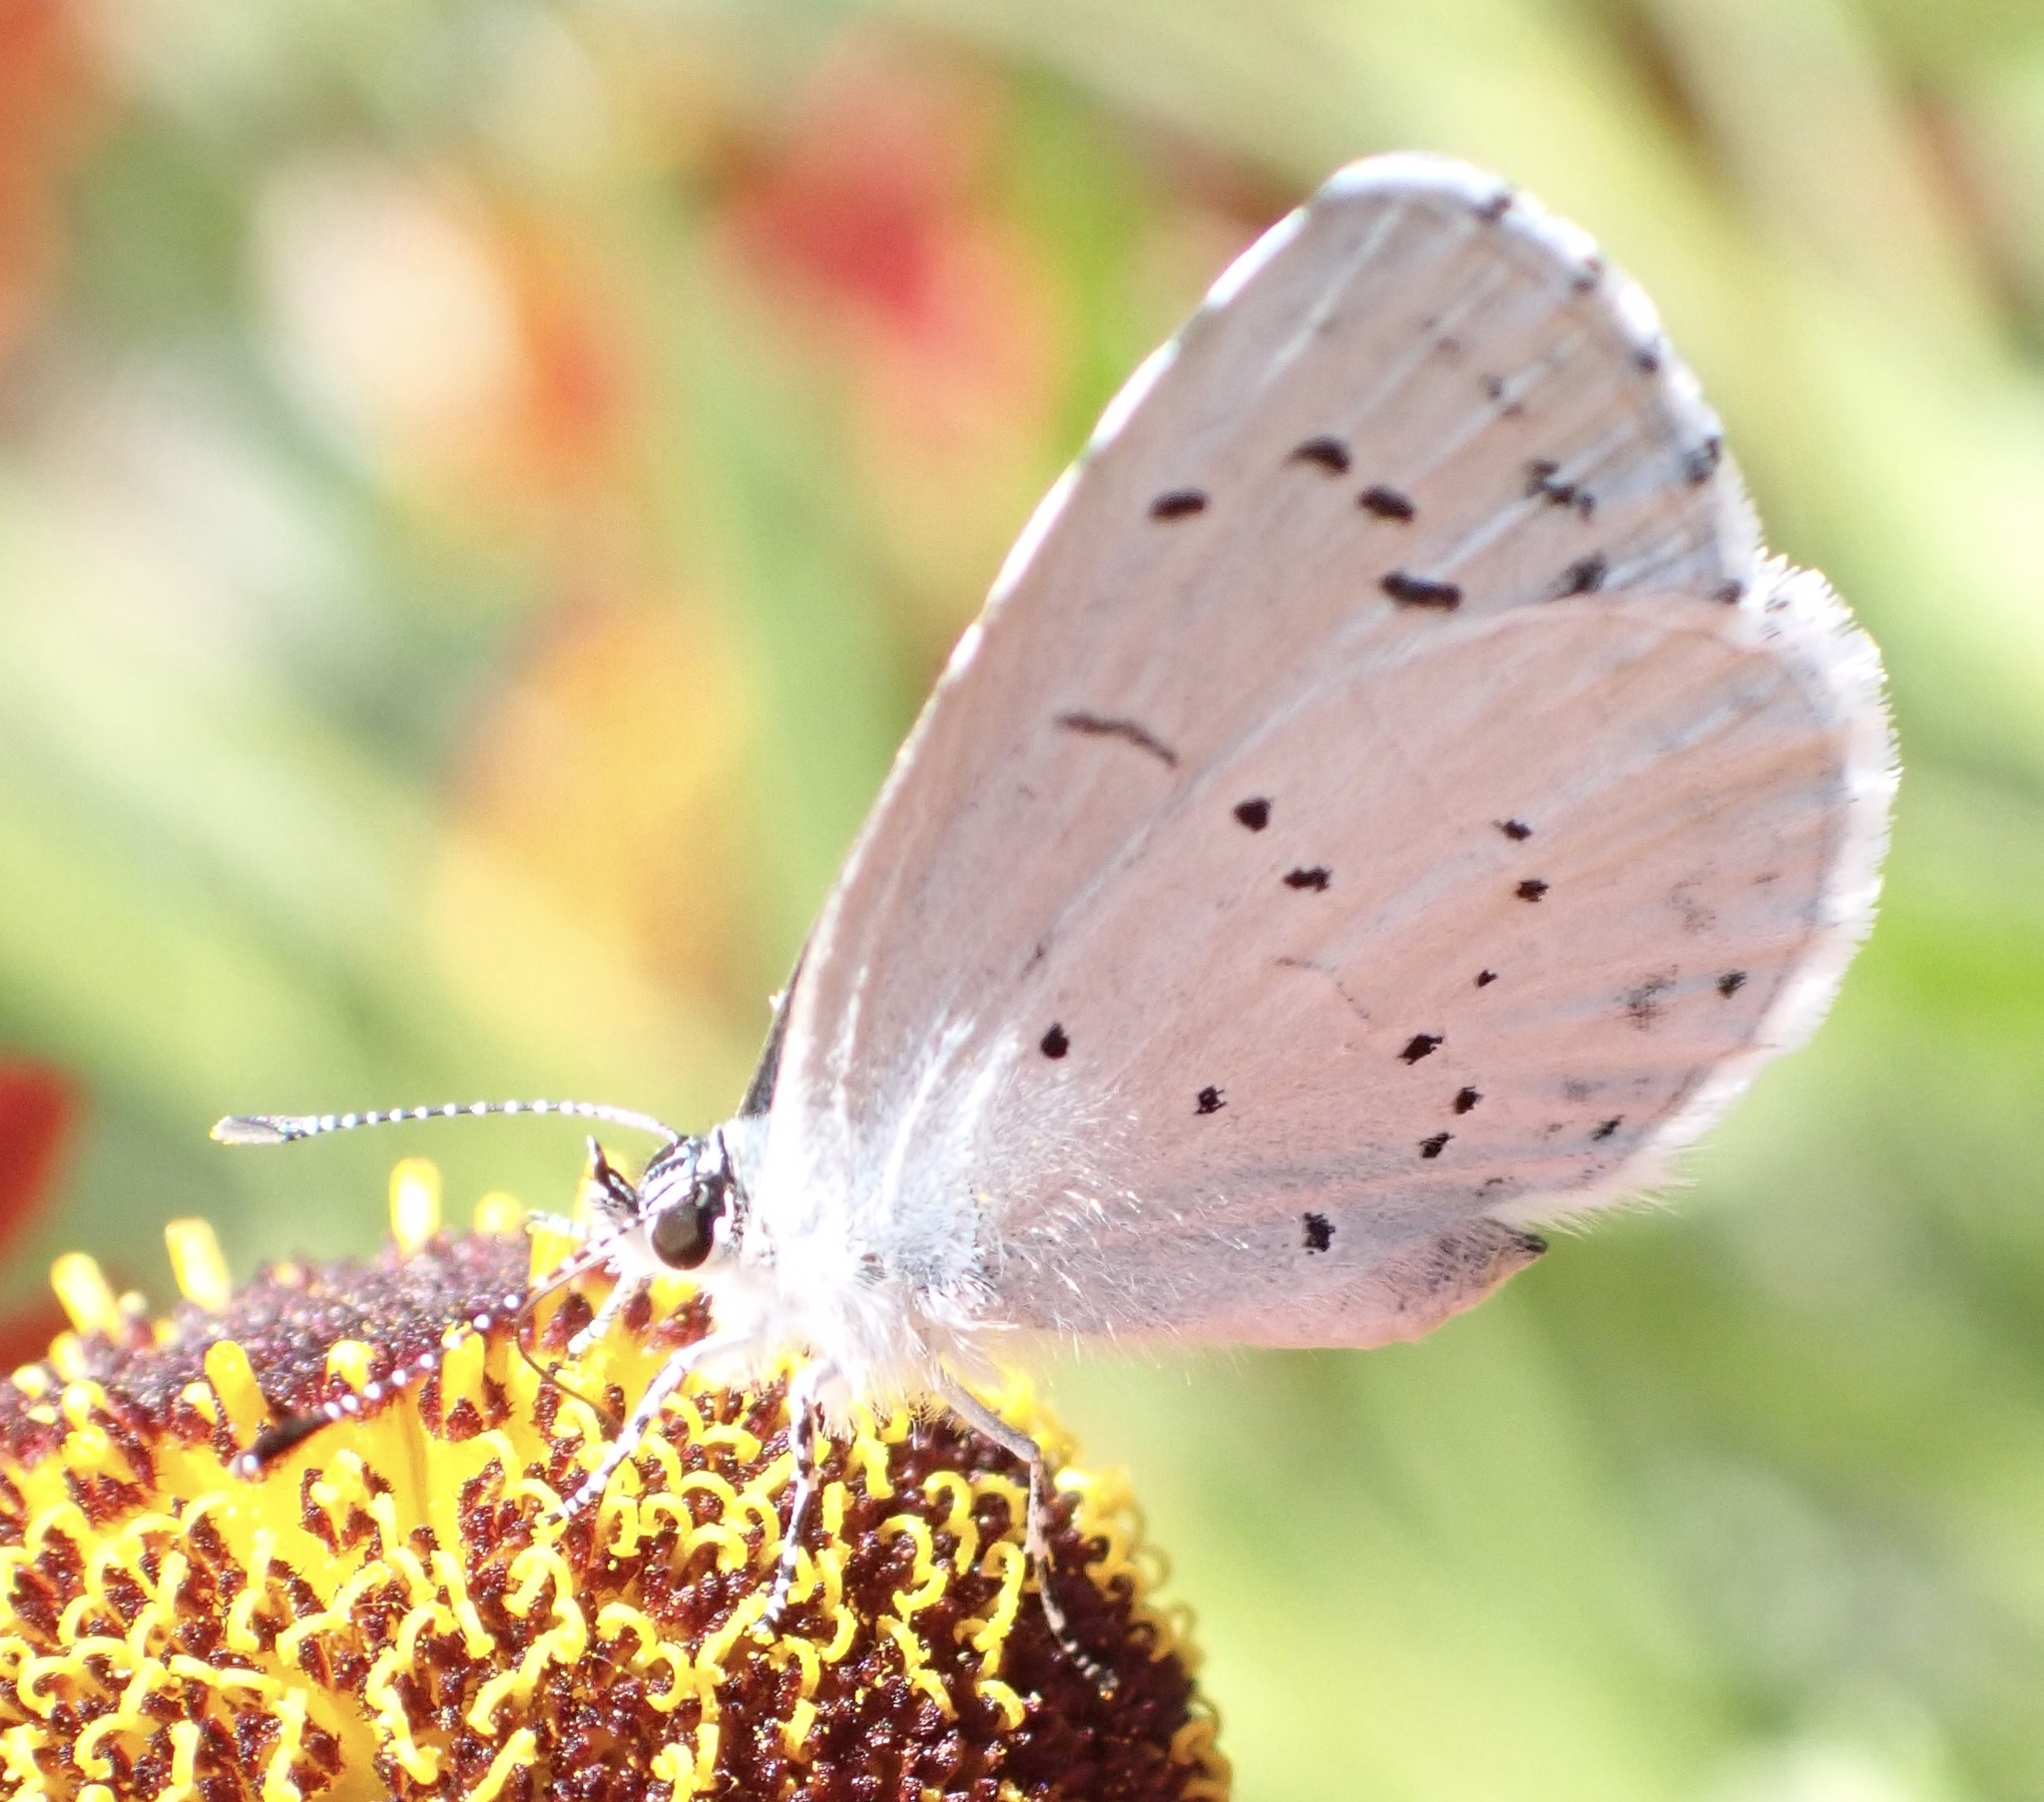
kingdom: Animalia
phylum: Arthropoda
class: Insecta
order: Lepidoptera
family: Lycaenidae
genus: Celastrina
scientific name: Celastrina argiolus
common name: Holly blue
